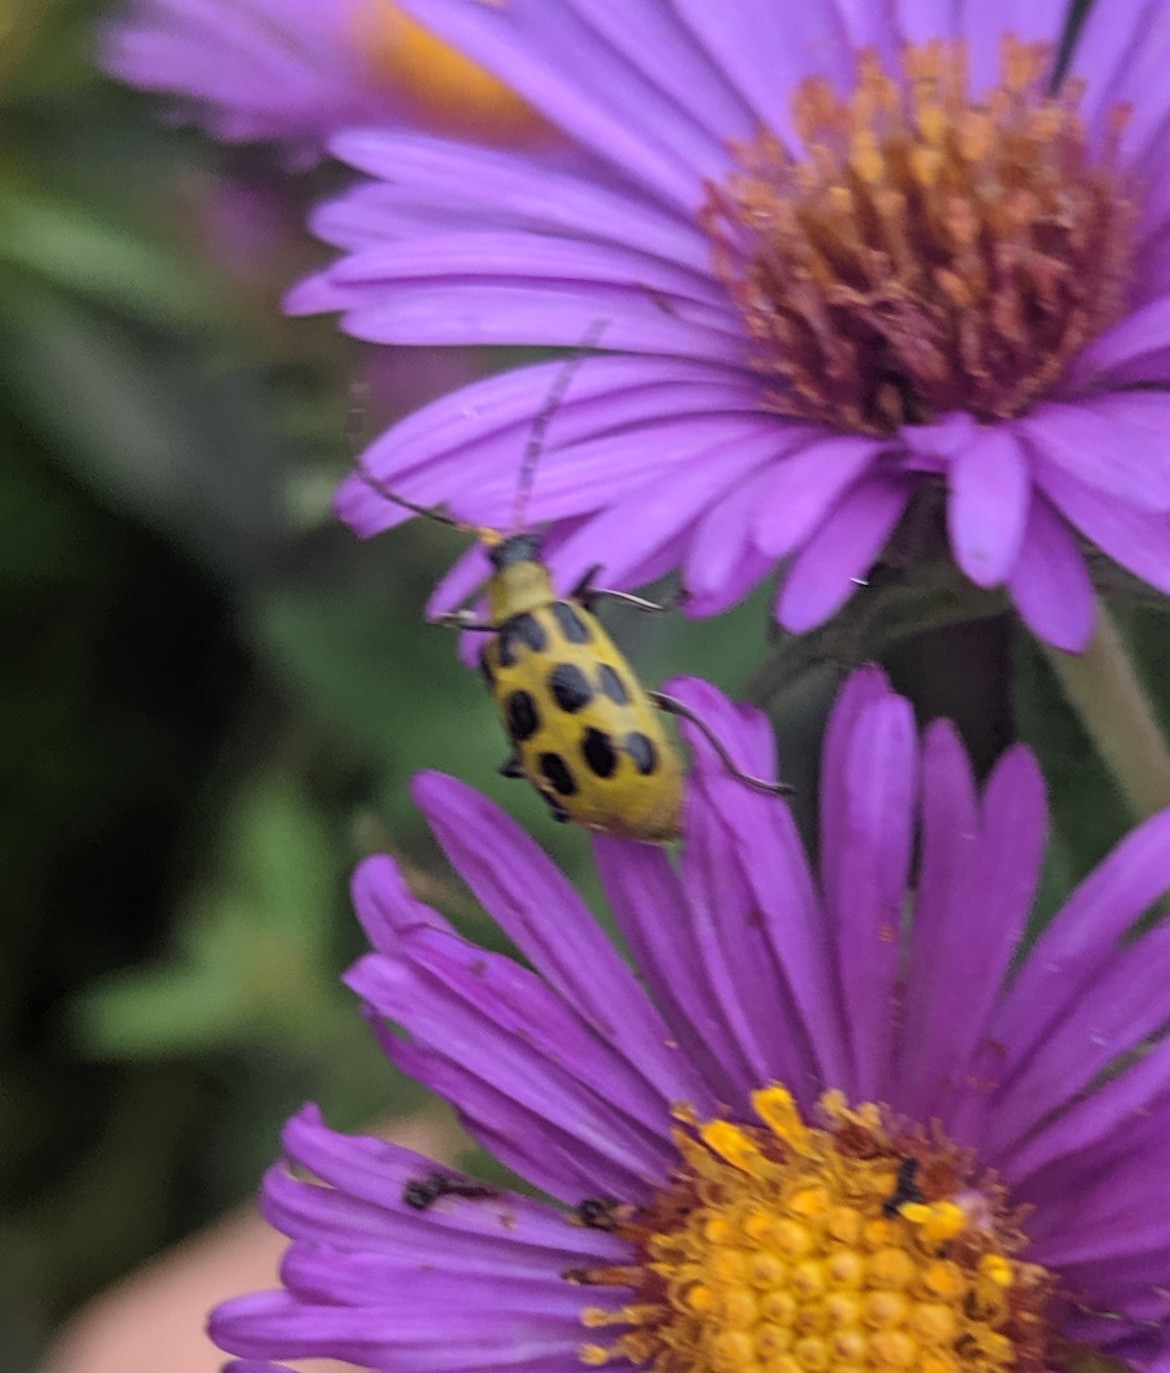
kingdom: Animalia
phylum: Arthropoda
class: Insecta
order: Coleoptera
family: Chrysomelidae
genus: Diabrotica
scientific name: Diabrotica undecimpunctata
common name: Spotted cucumber beetle
